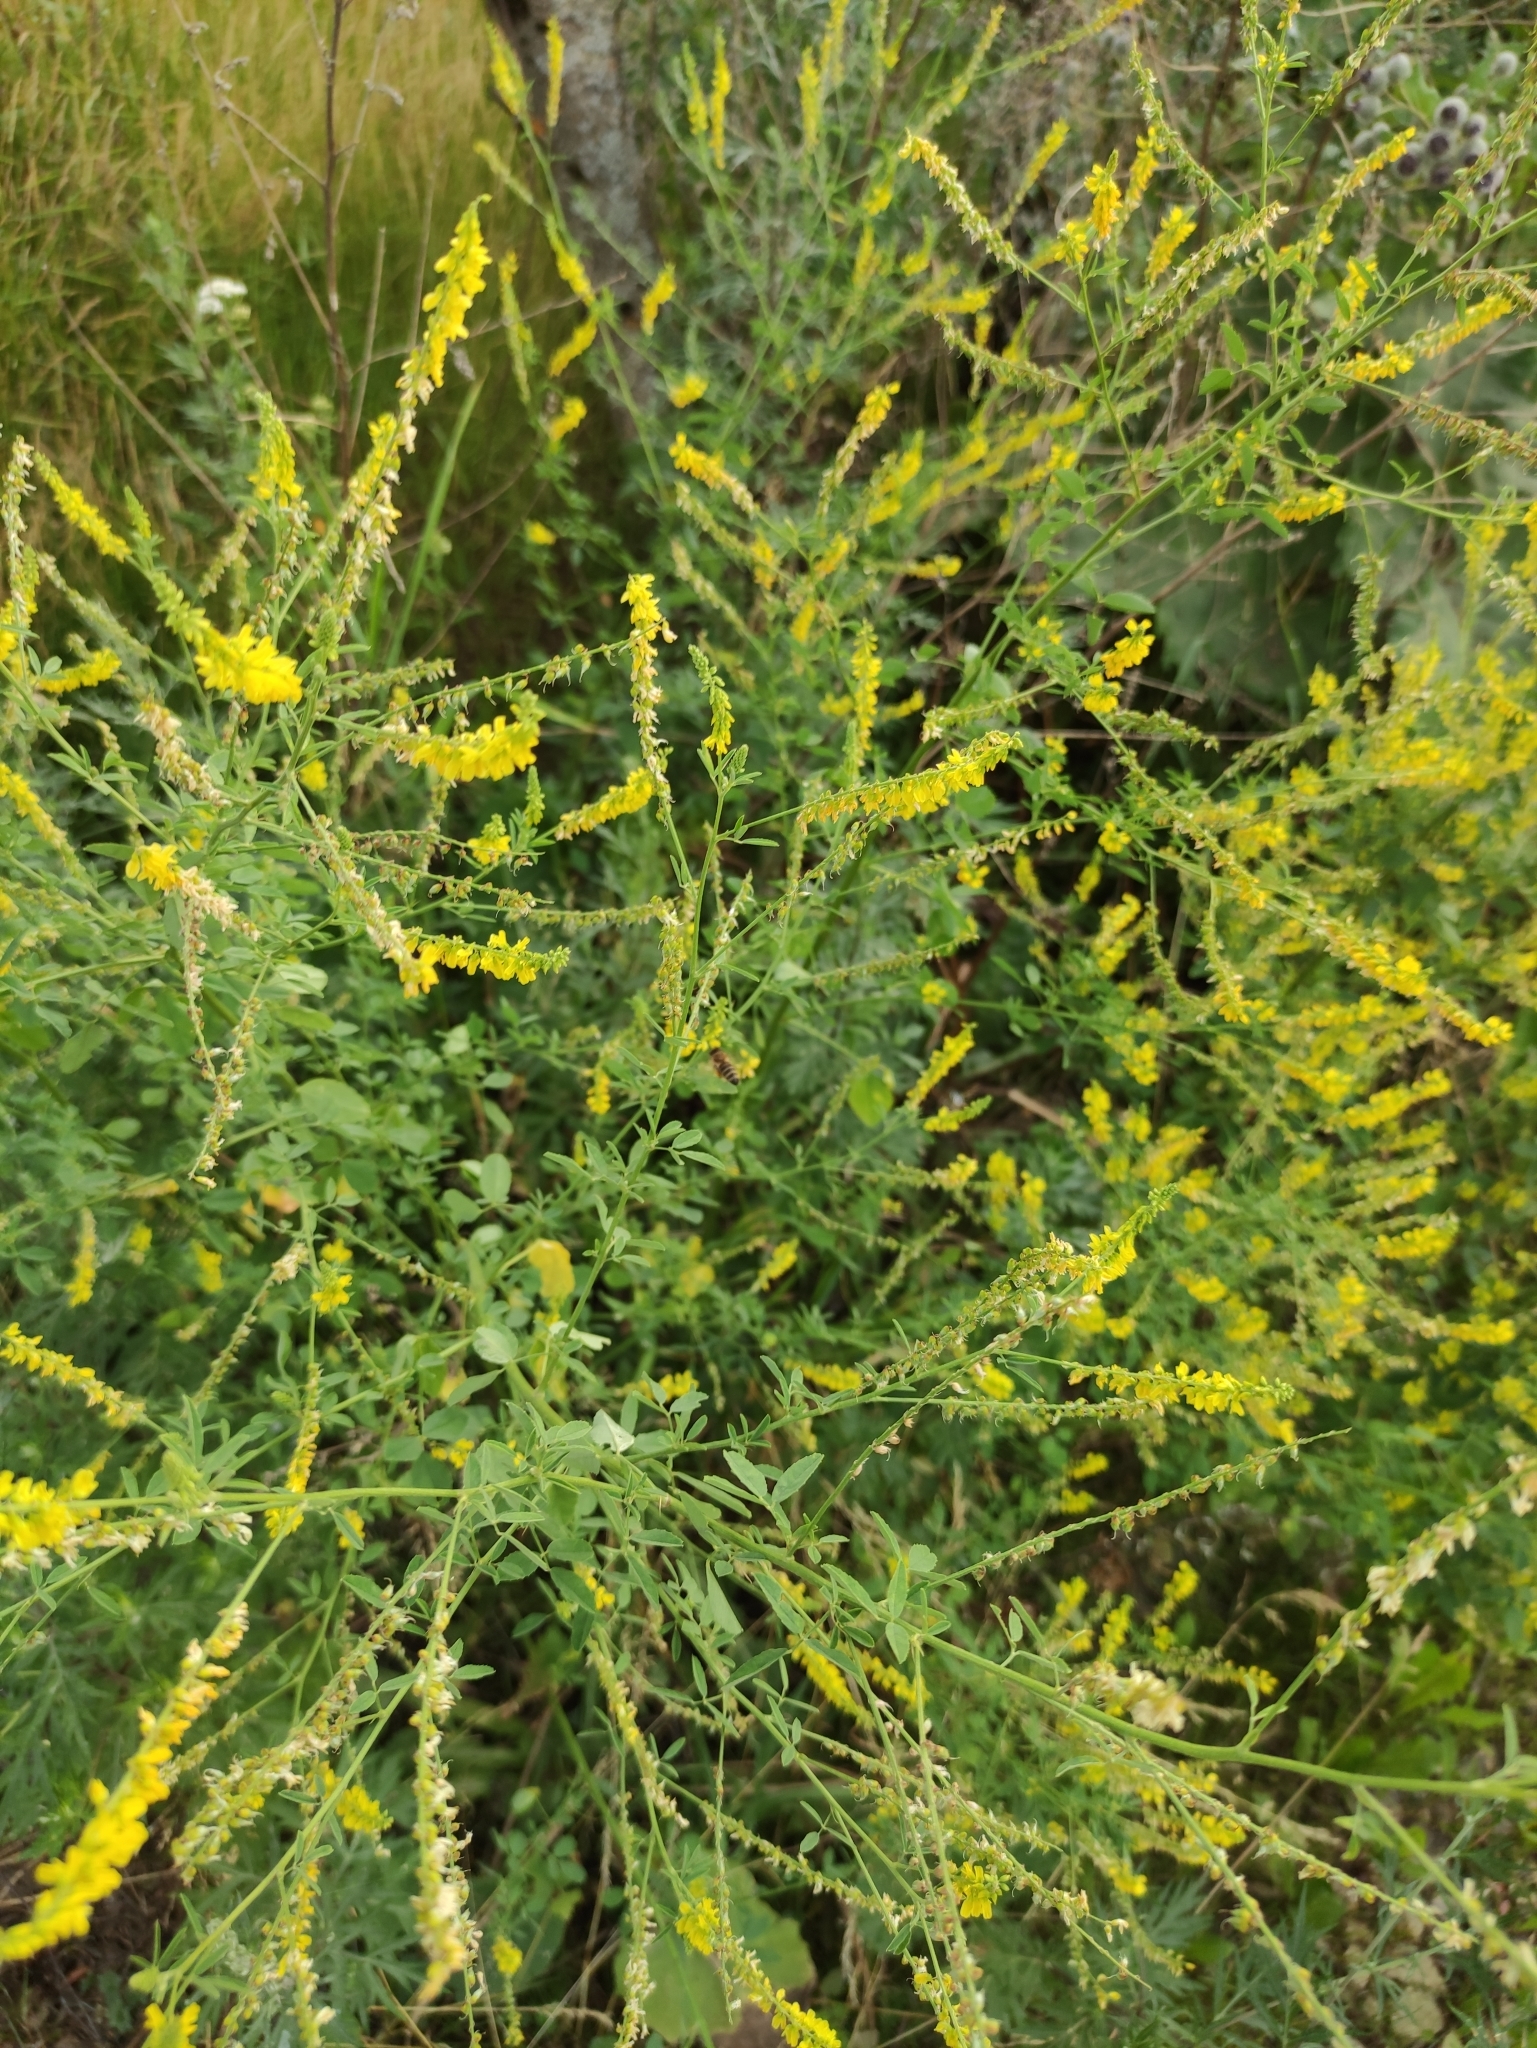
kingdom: Plantae
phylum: Tracheophyta
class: Magnoliopsida
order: Fabales
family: Fabaceae
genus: Melilotus
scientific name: Melilotus officinalis
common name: Sweetclover
